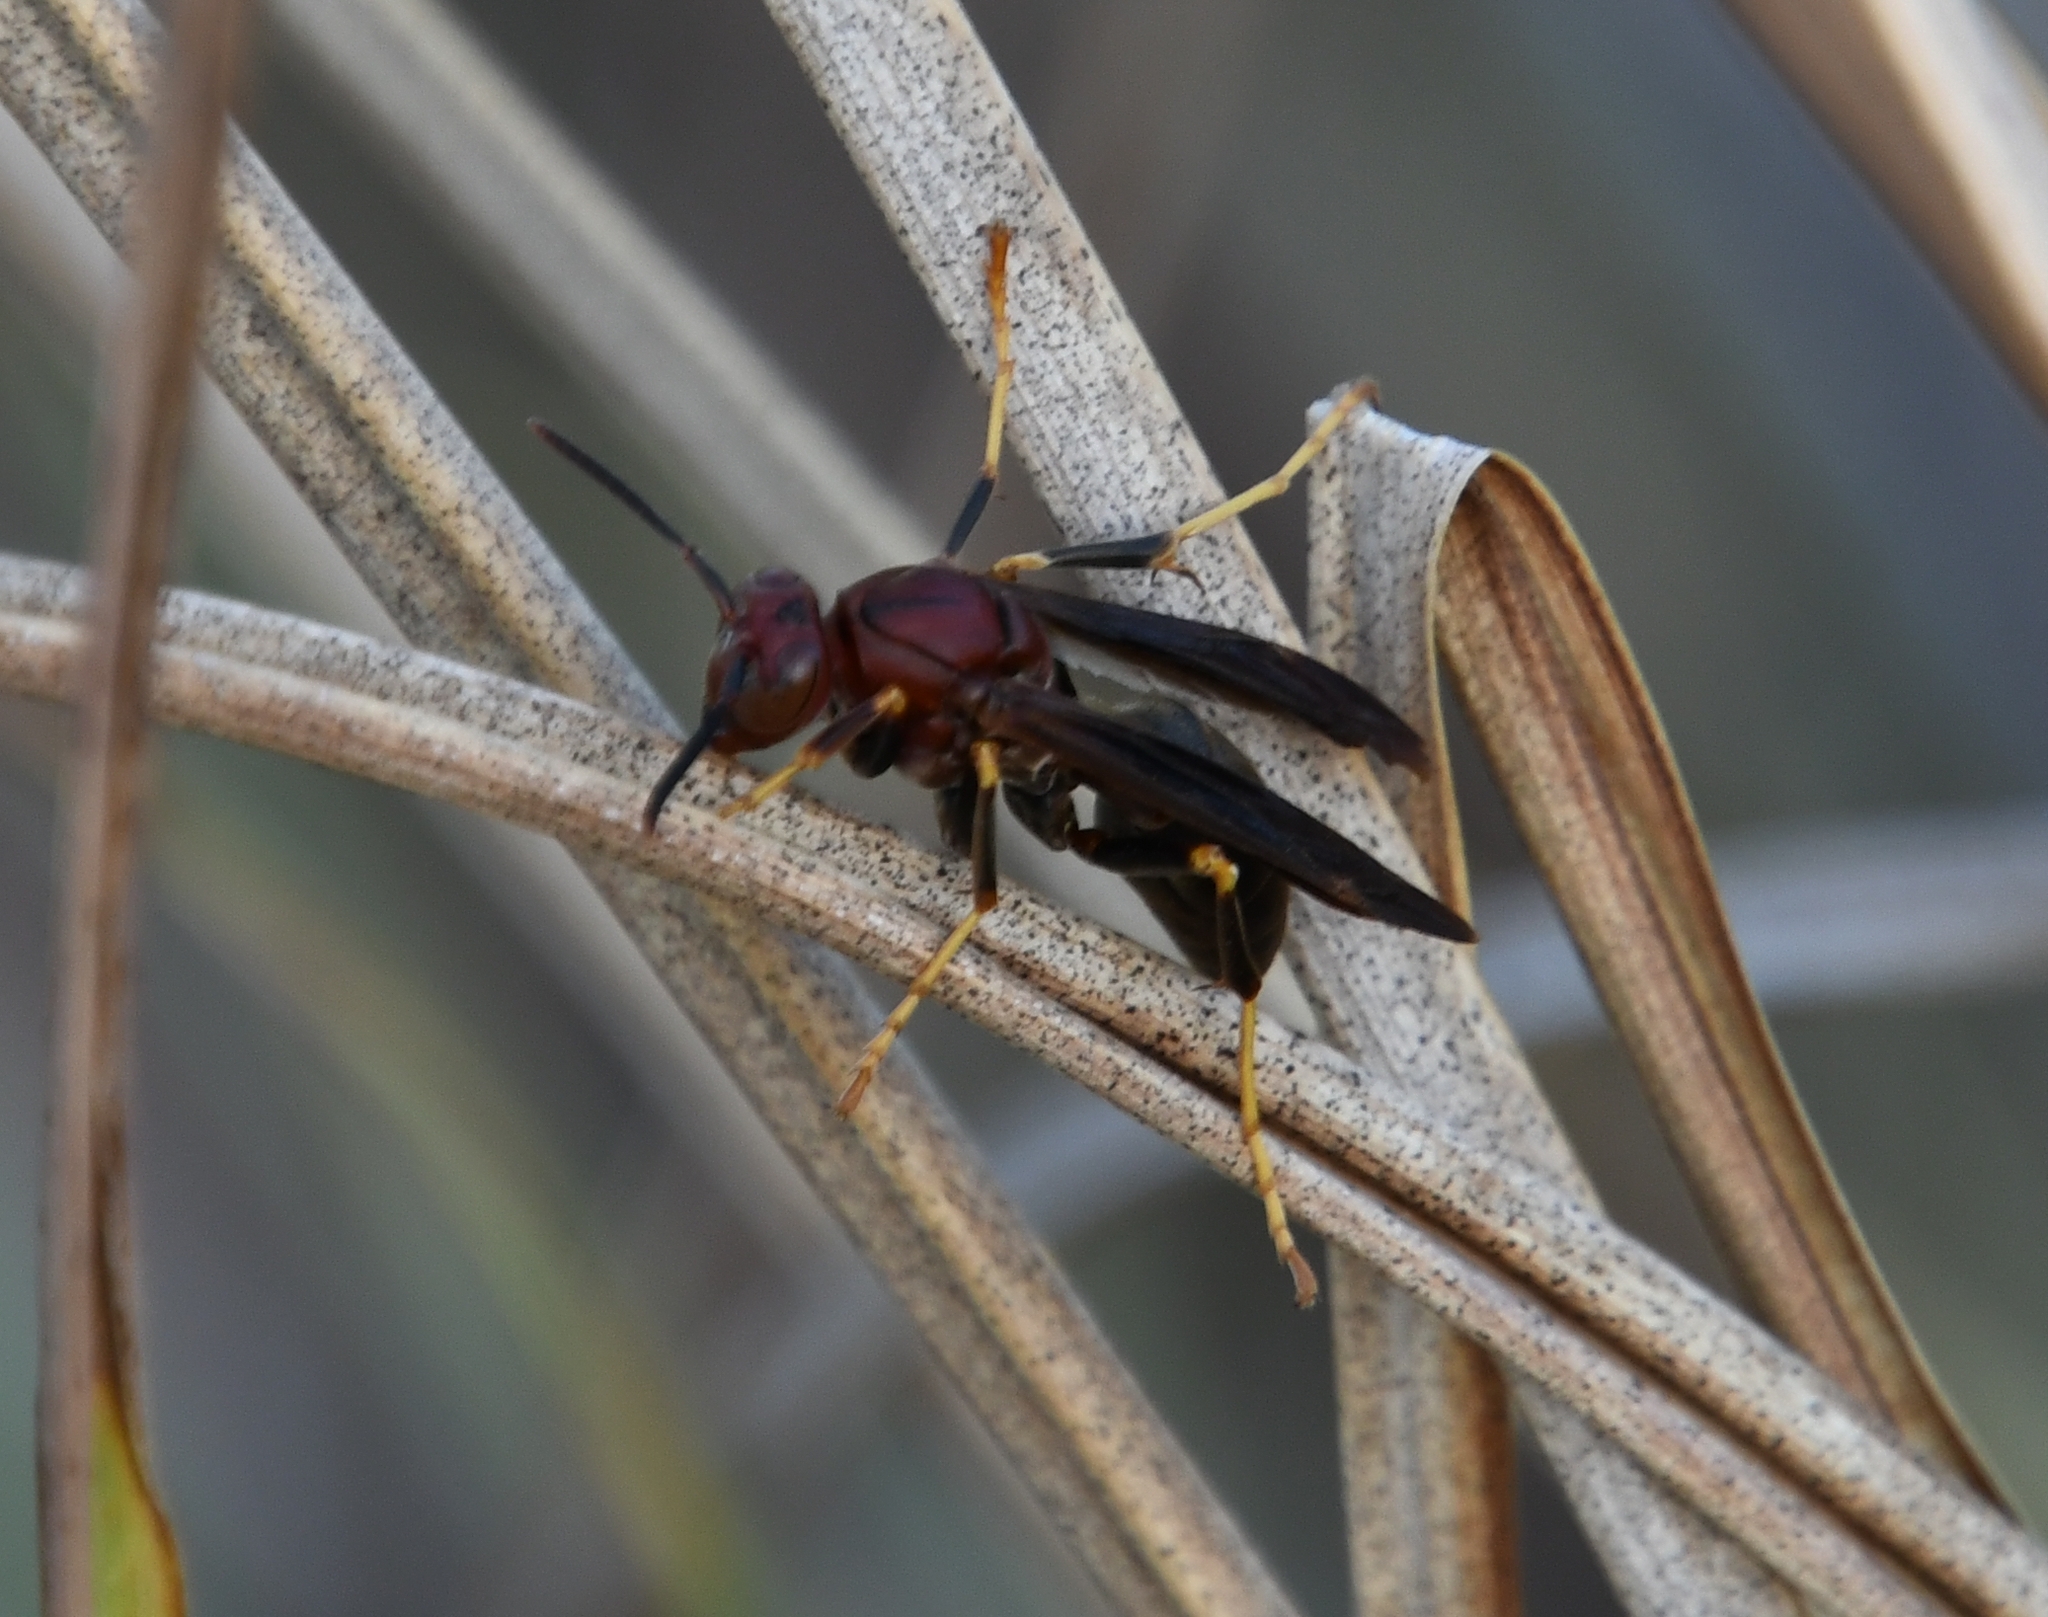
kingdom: Animalia
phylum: Arthropoda
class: Insecta
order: Hymenoptera
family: Eumenidae
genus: Polistes
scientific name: Polistes metricus
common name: Metric paper wasp
